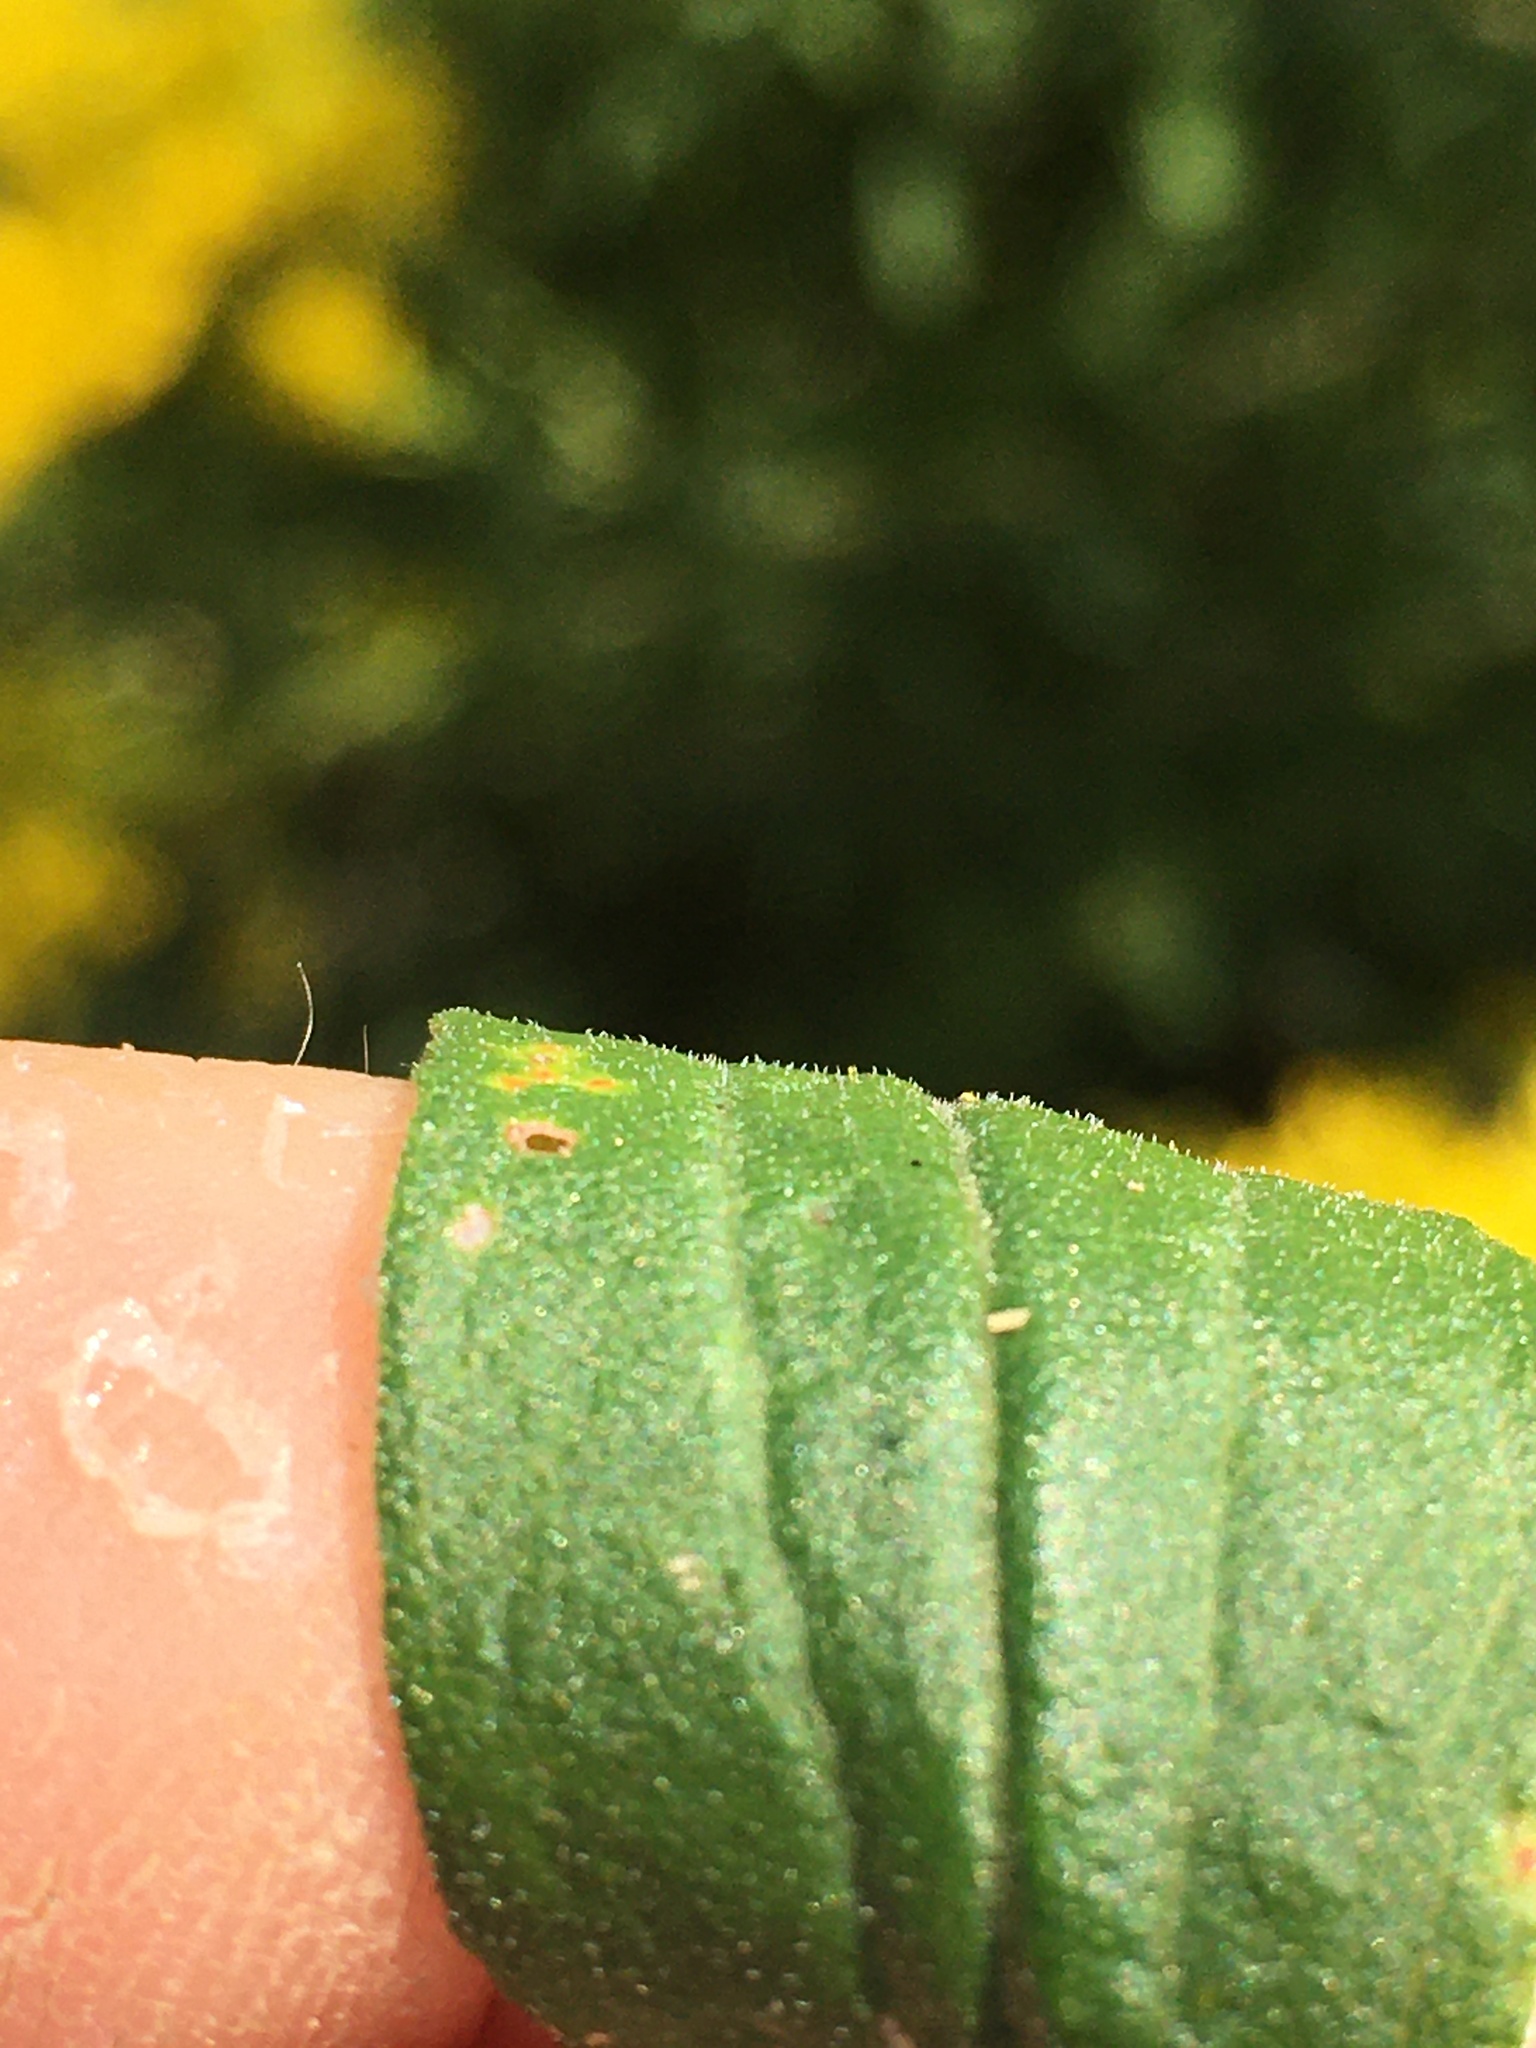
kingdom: Plantae
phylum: Tracheophyta
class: Magnoliopsida
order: Asterales
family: Asteraceae
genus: Solidago
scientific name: Solidago altissima
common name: Late goldenrod
